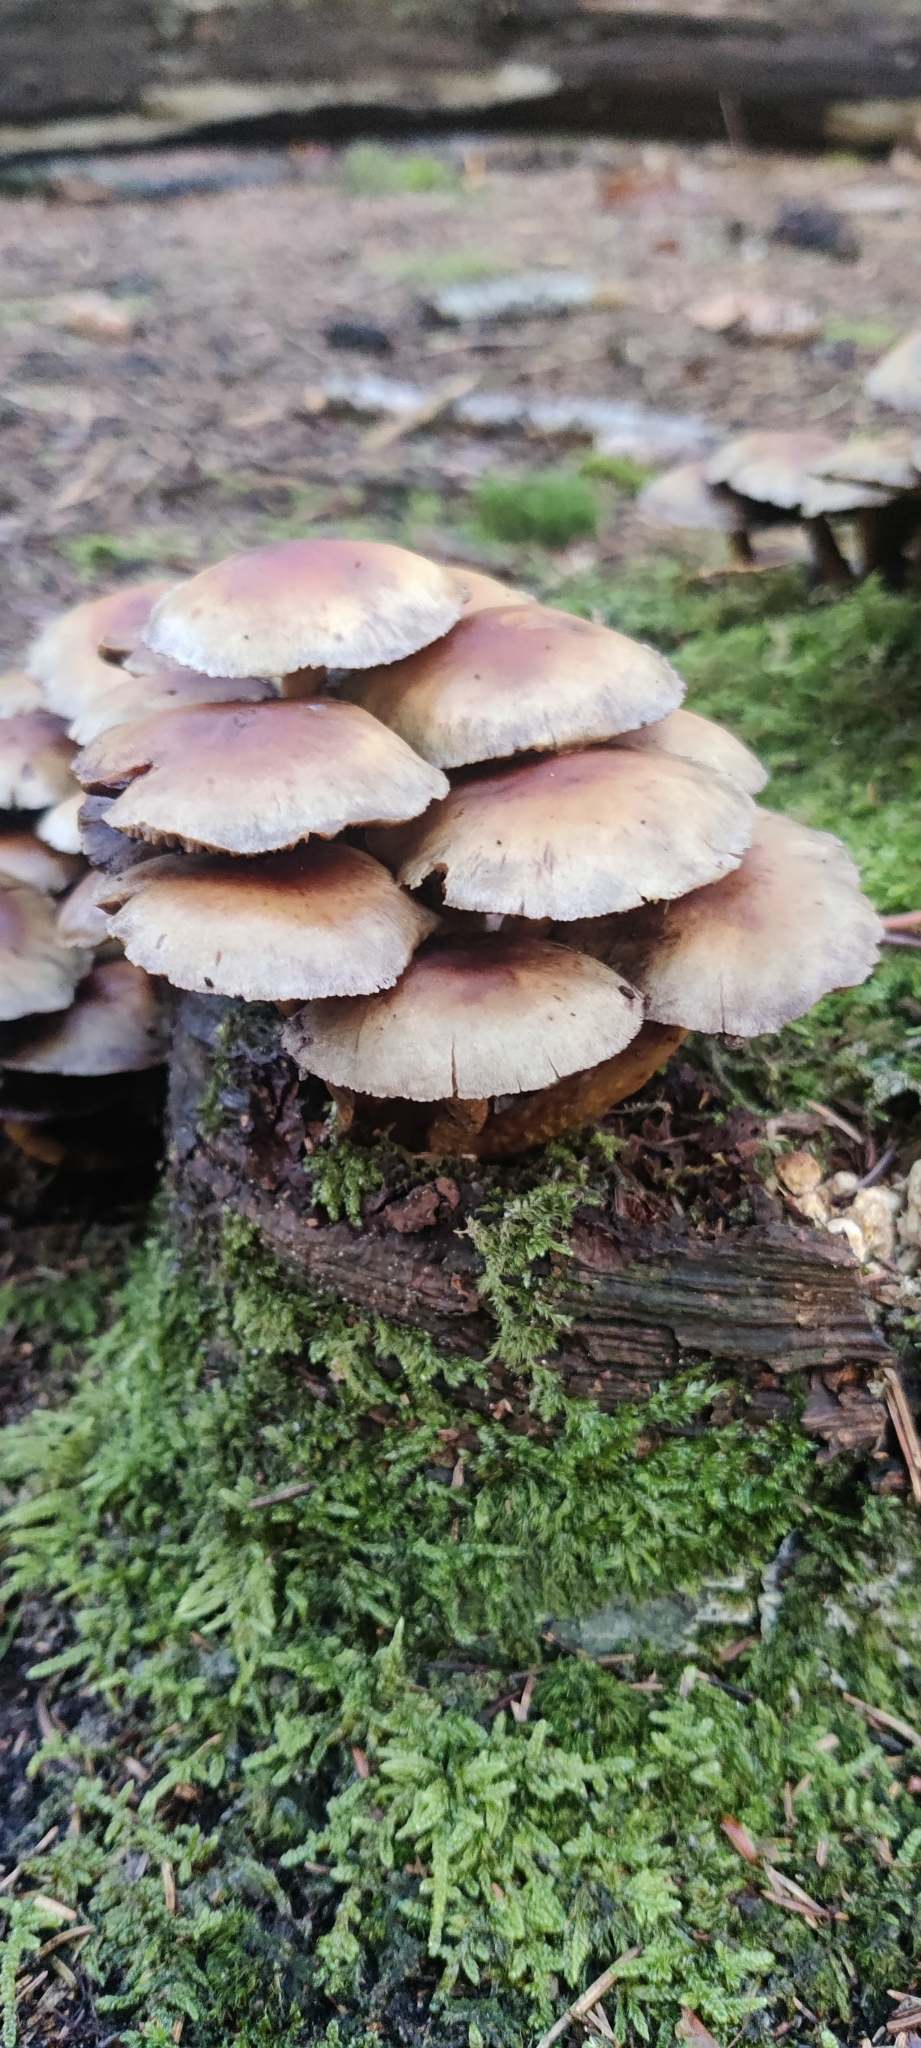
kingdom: Fungi
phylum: Basidiomycota
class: Agaricomycetes
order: Agaricales
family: Physalacriaceae
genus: Armillaria
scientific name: Armillaria mellea
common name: Honey fungus
